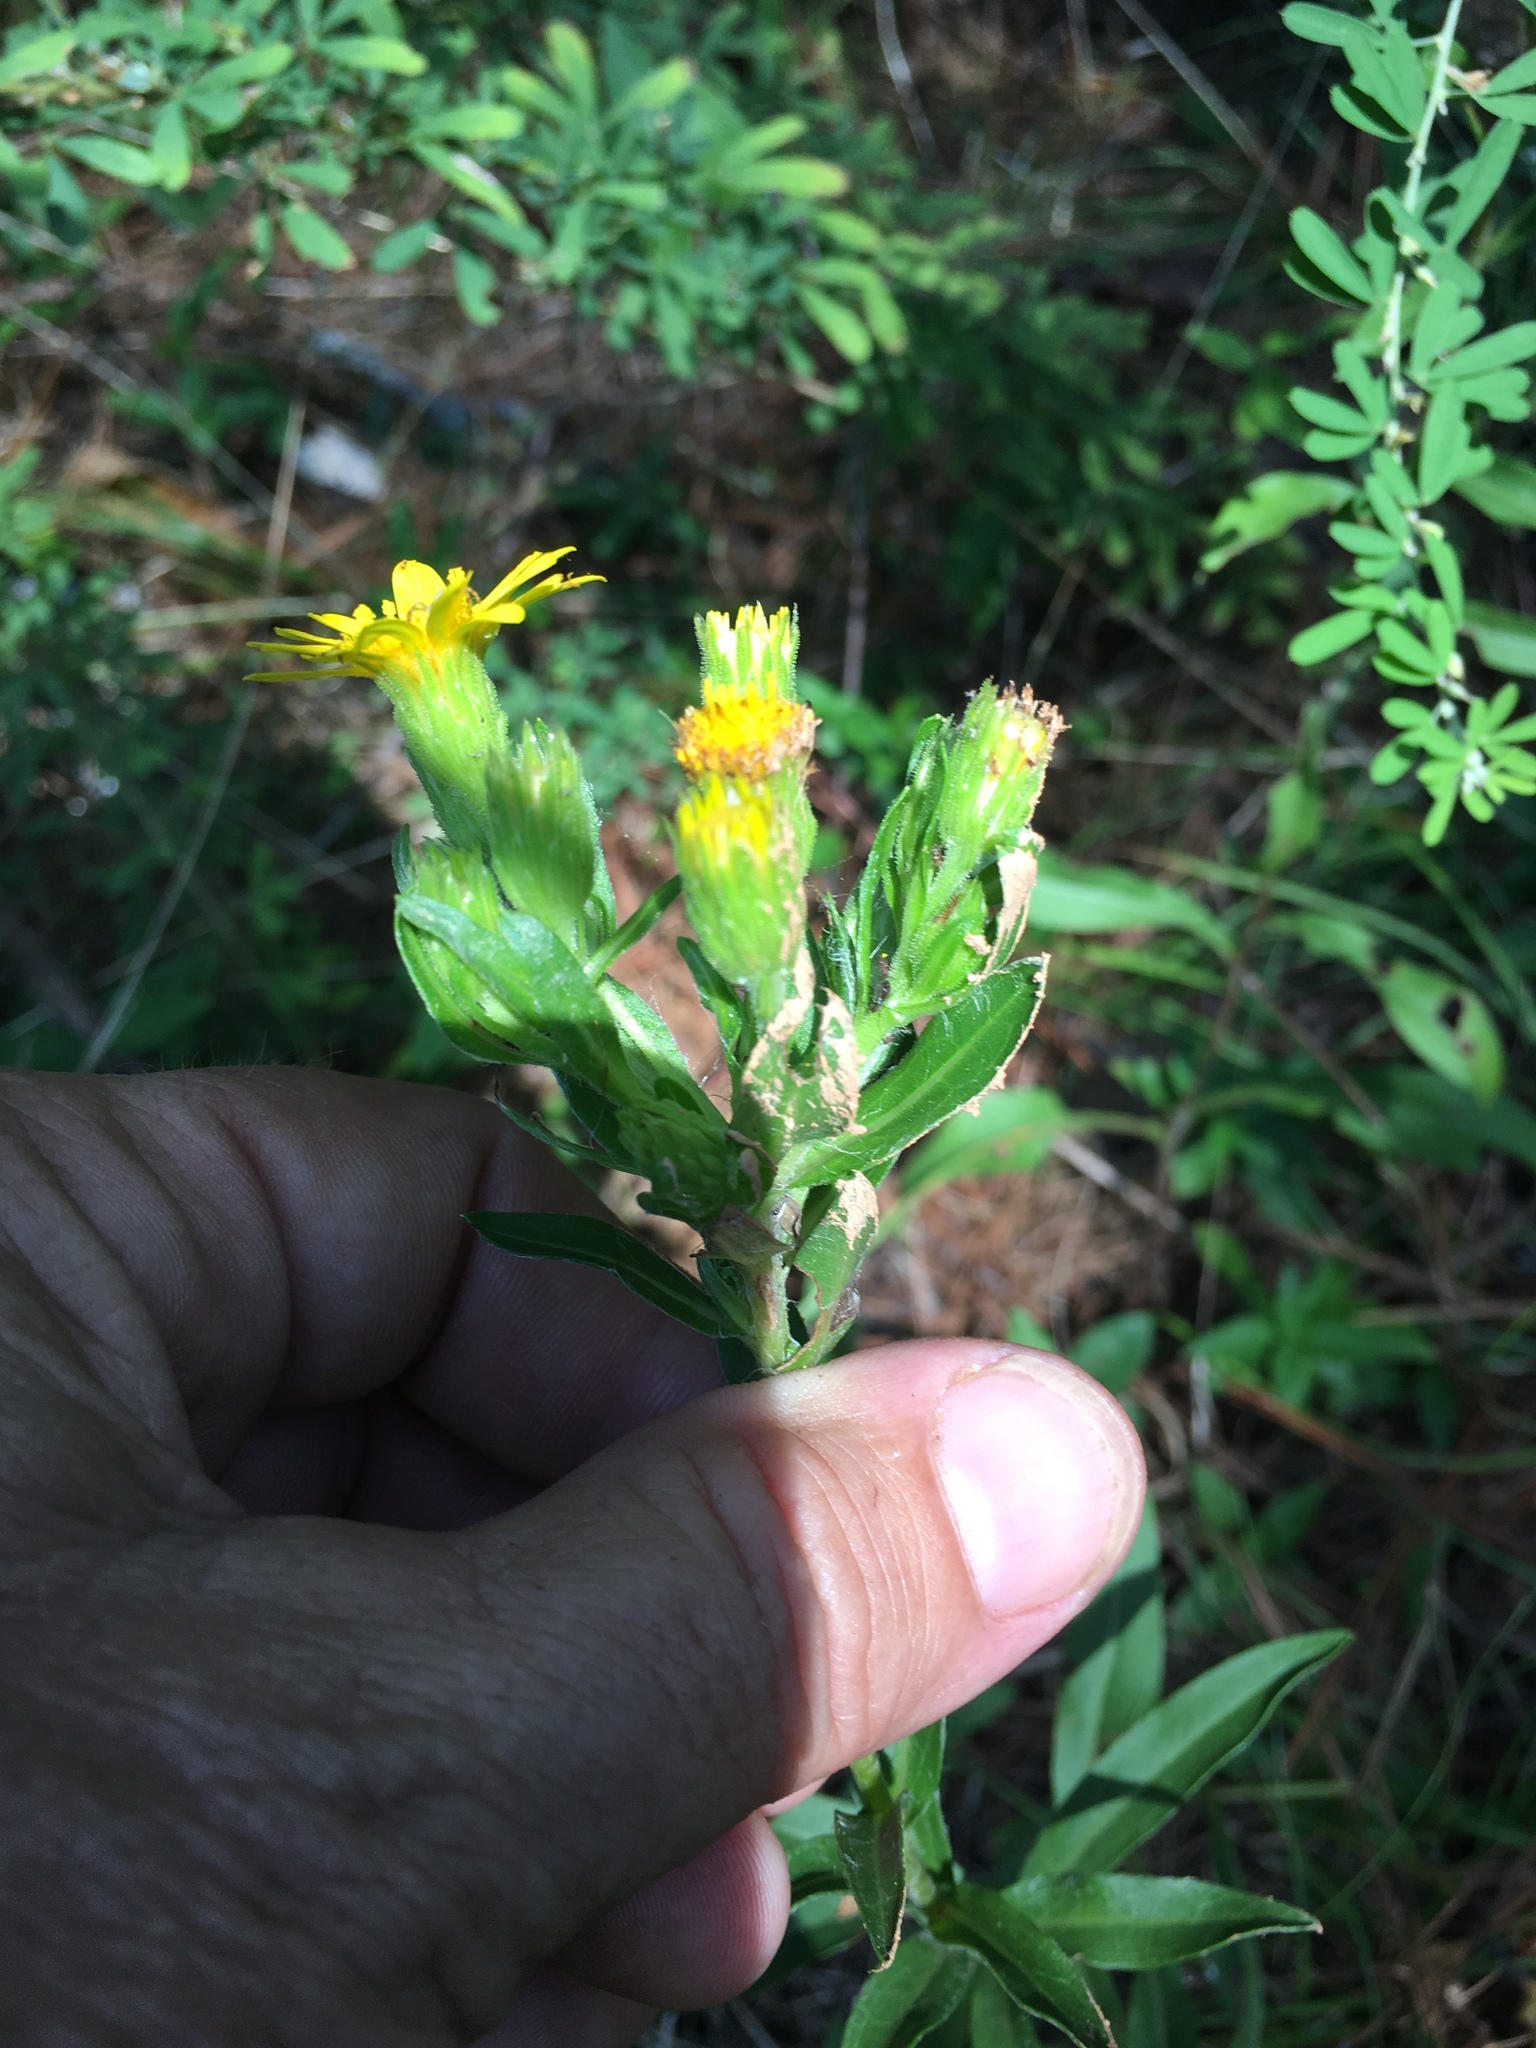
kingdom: Plantae
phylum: Tracheophyta
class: Magnoliopsida
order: Asterales
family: Asteraceae
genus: Chrysopsis
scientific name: Chrysopsis mariana
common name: Maryland golden-aster
